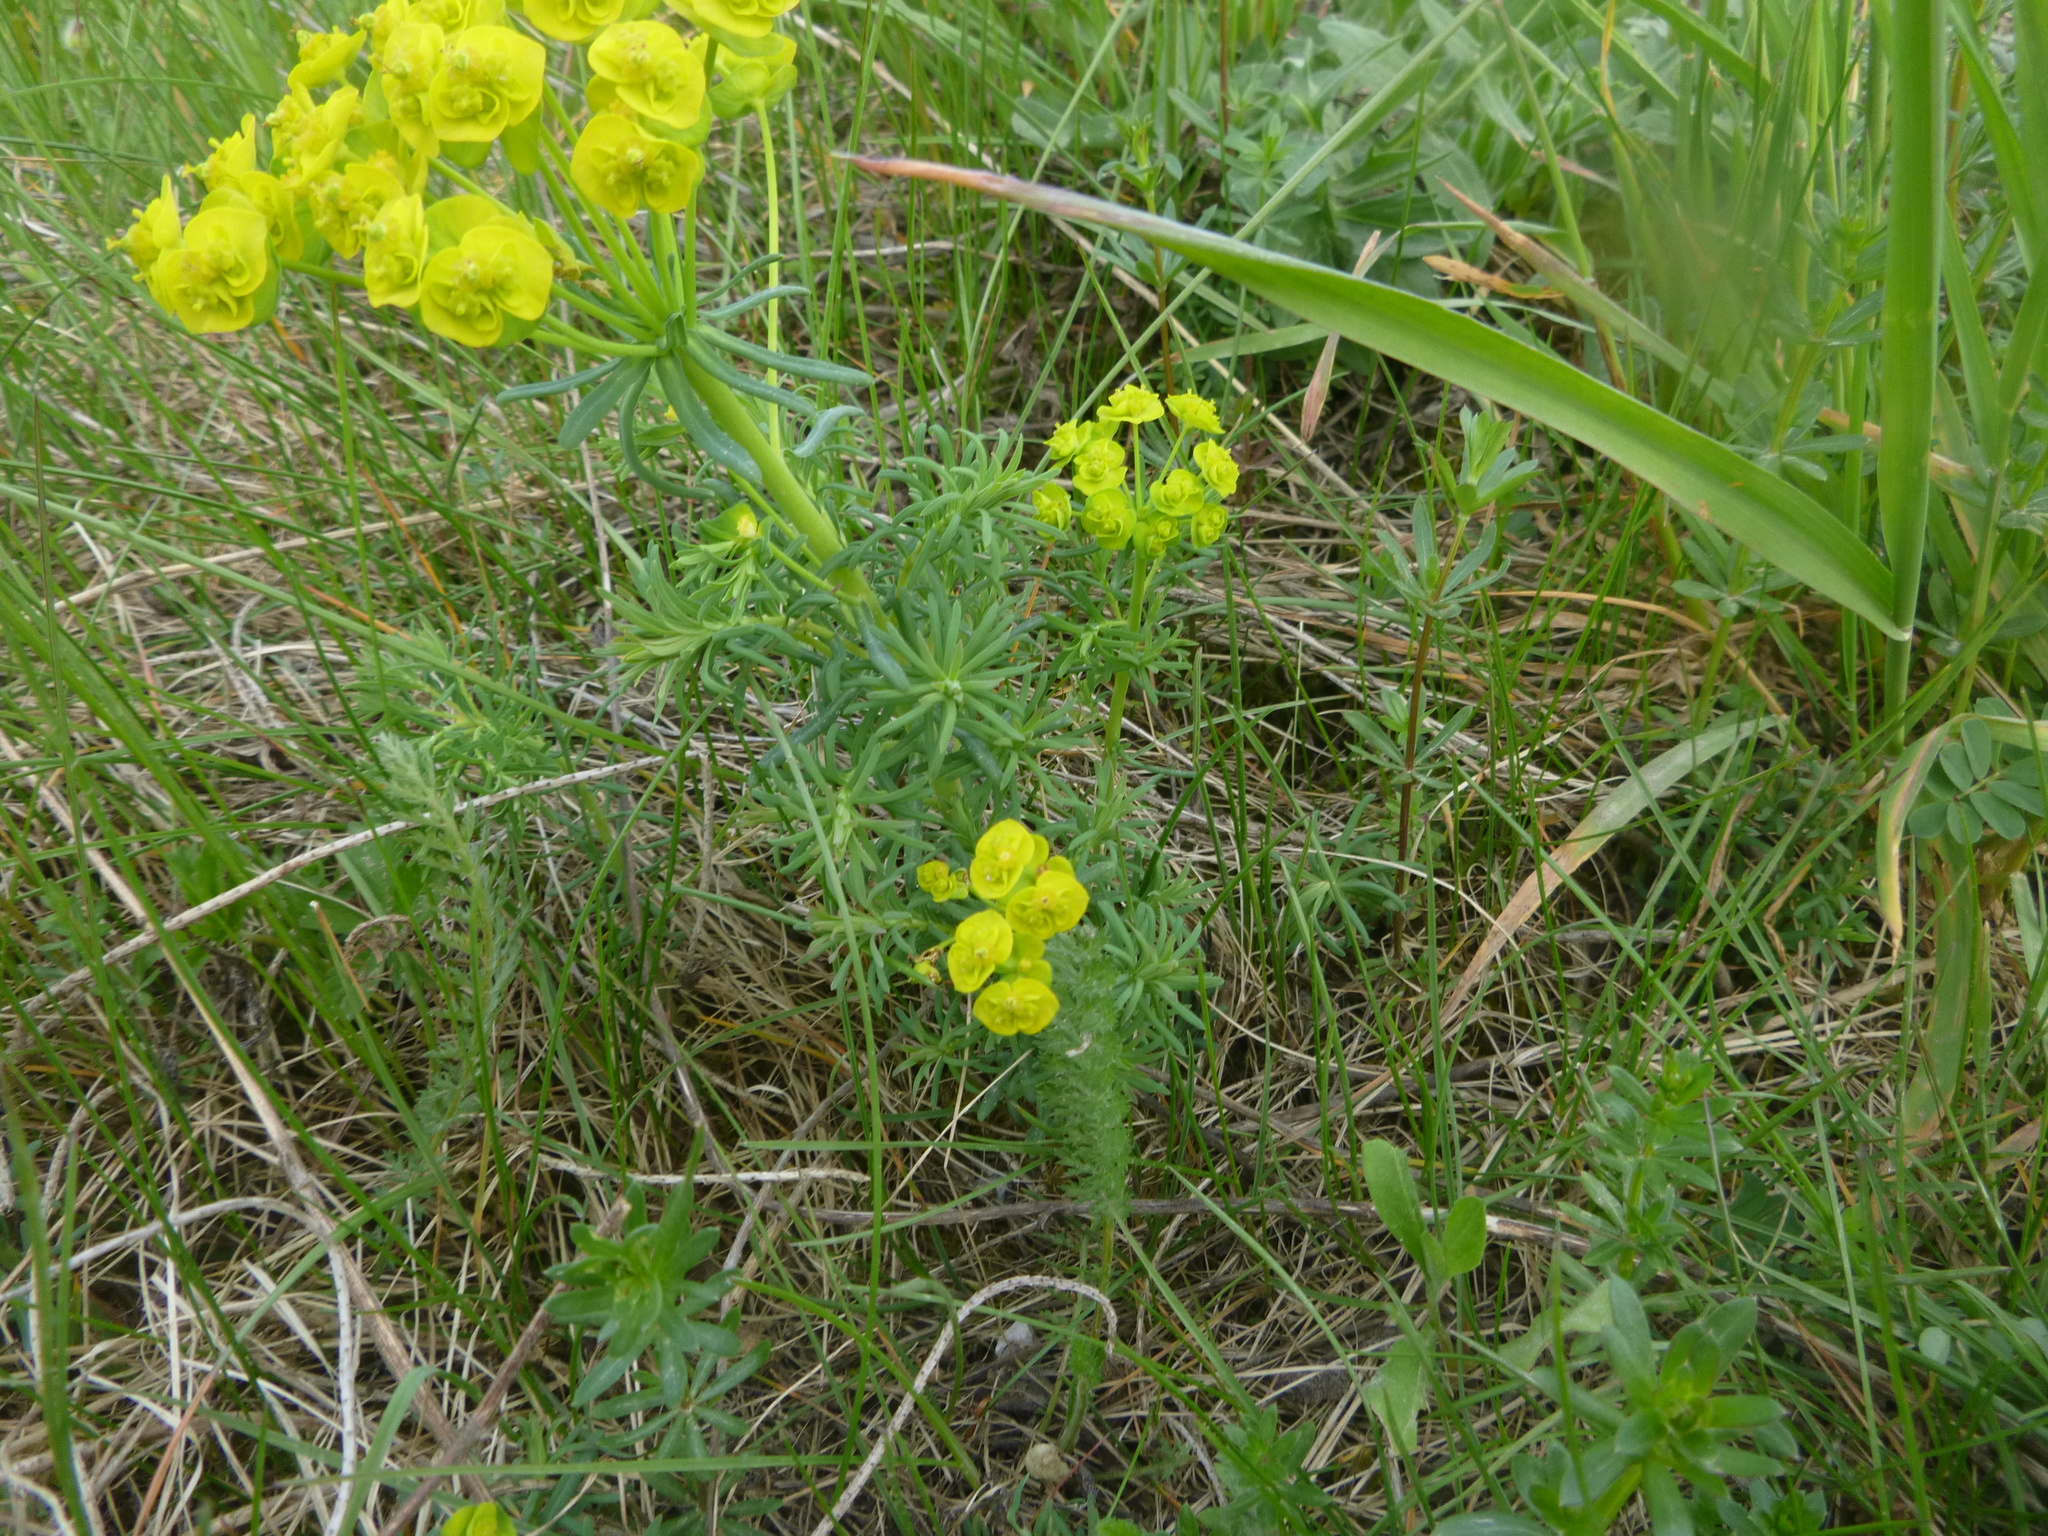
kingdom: Plantae
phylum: Tracheophyta
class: Magnoliopsida
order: Malpighiales
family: Euphorbiaceae
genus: Euphorbia
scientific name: Euphorbia cyparissias
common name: Cypress spurge
